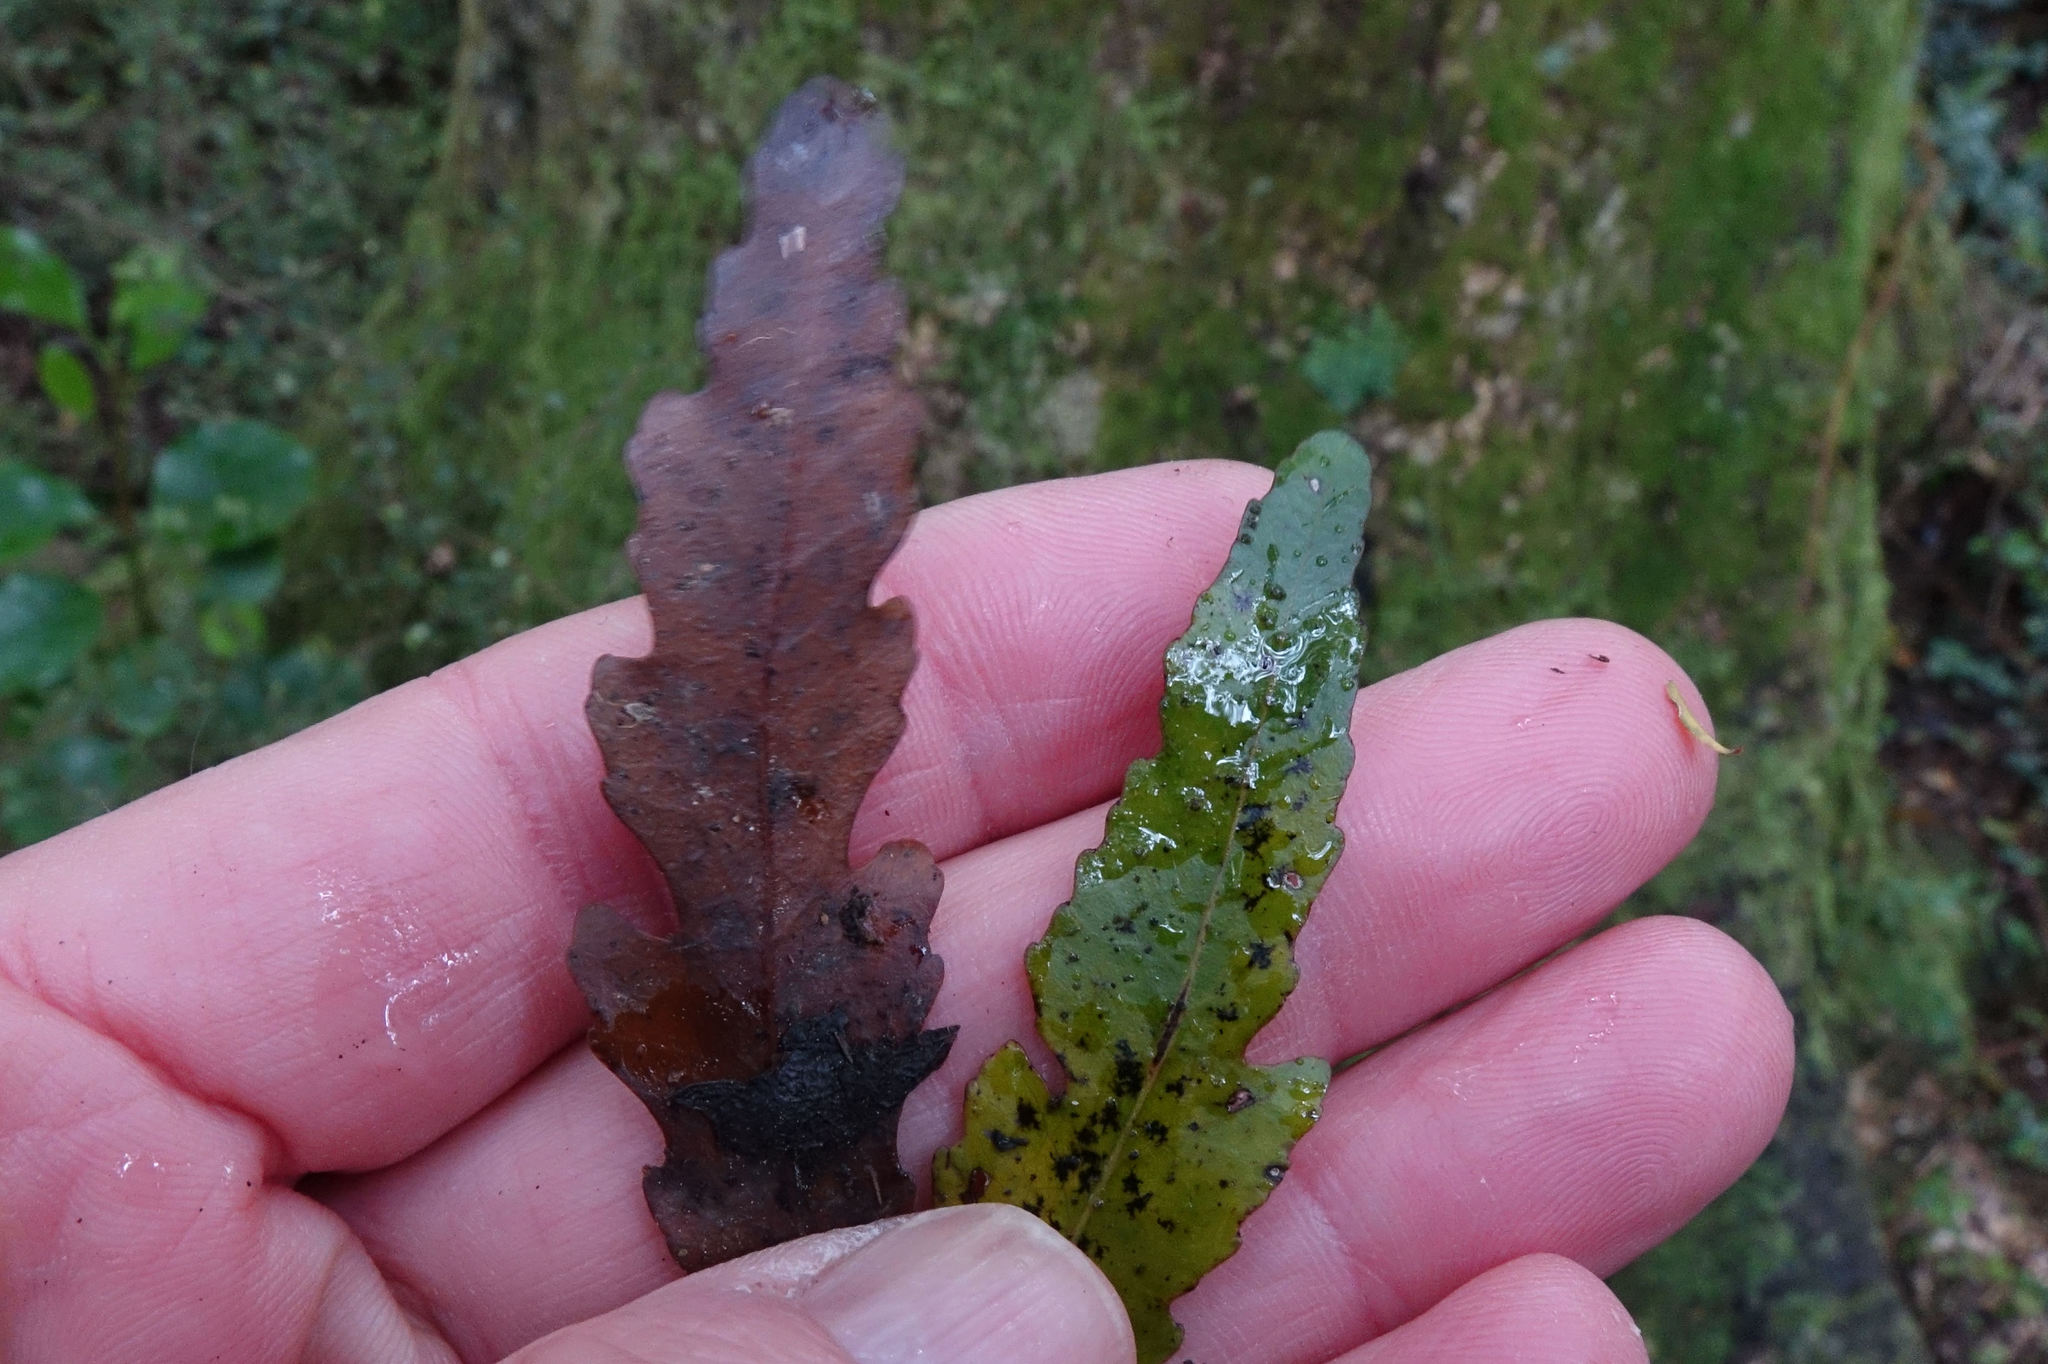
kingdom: Plantae
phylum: Tracheophyta
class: Magnoliopsida
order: Oxalidales
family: Elaeocarpaceae
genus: Elaeocarpus
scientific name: Elaeocarpus hookerianus
